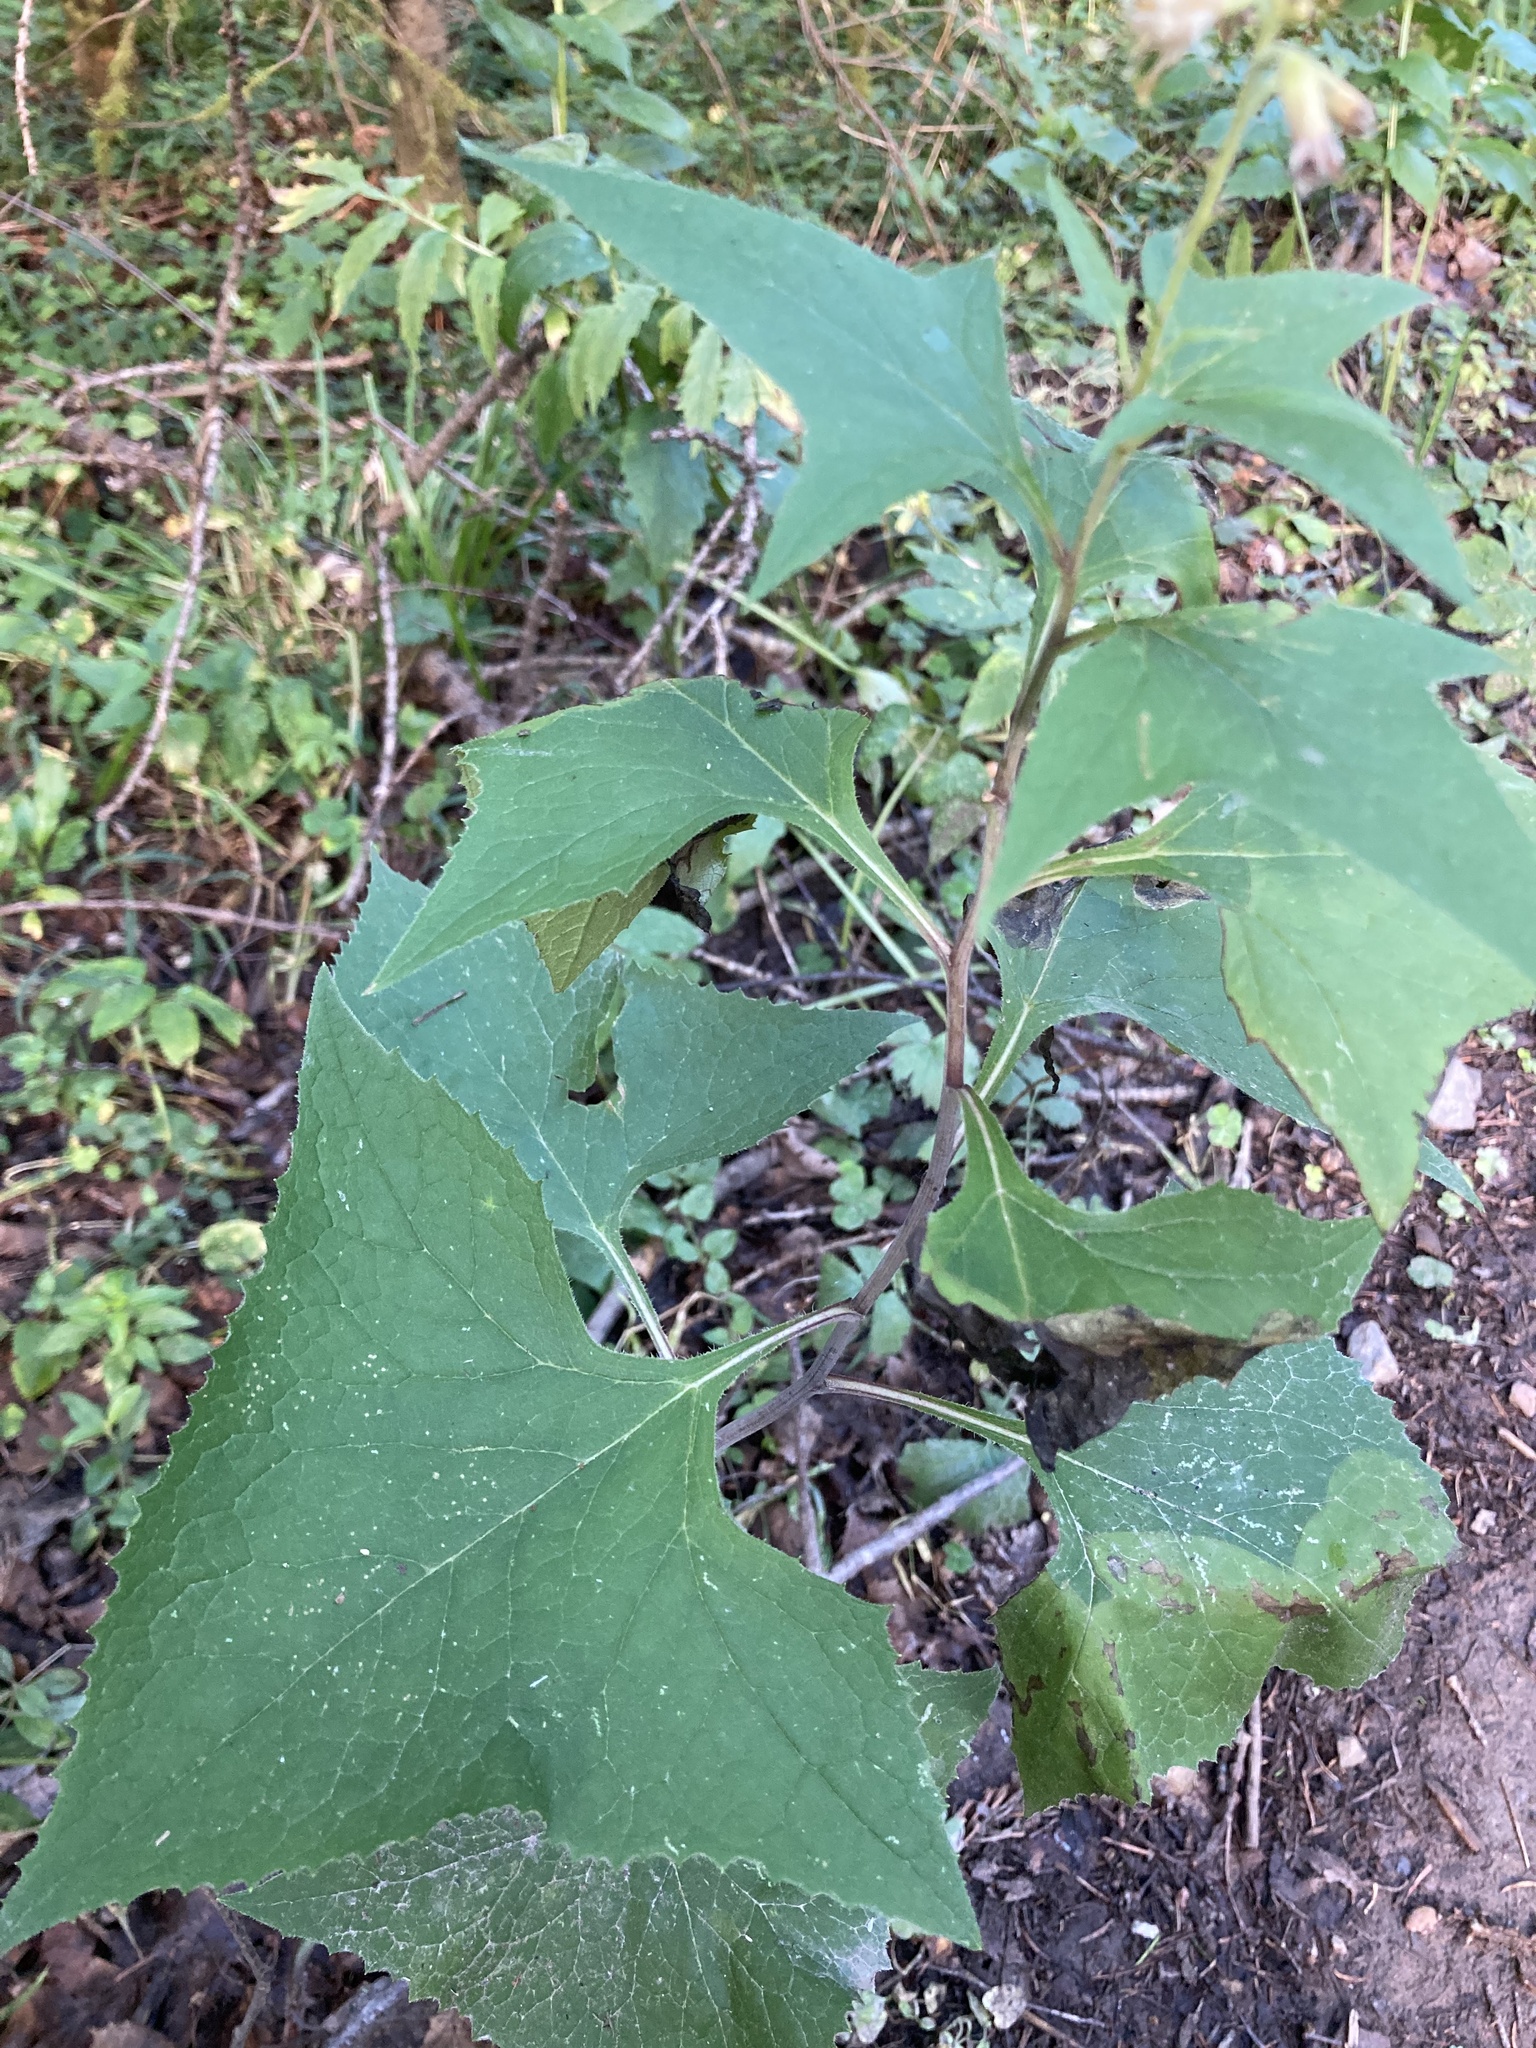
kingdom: Plantae
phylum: Tracheophyta
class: Magnoliopsida
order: Asterales
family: Asteraceae
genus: Parasenecio
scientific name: Parasenecio hastatus
